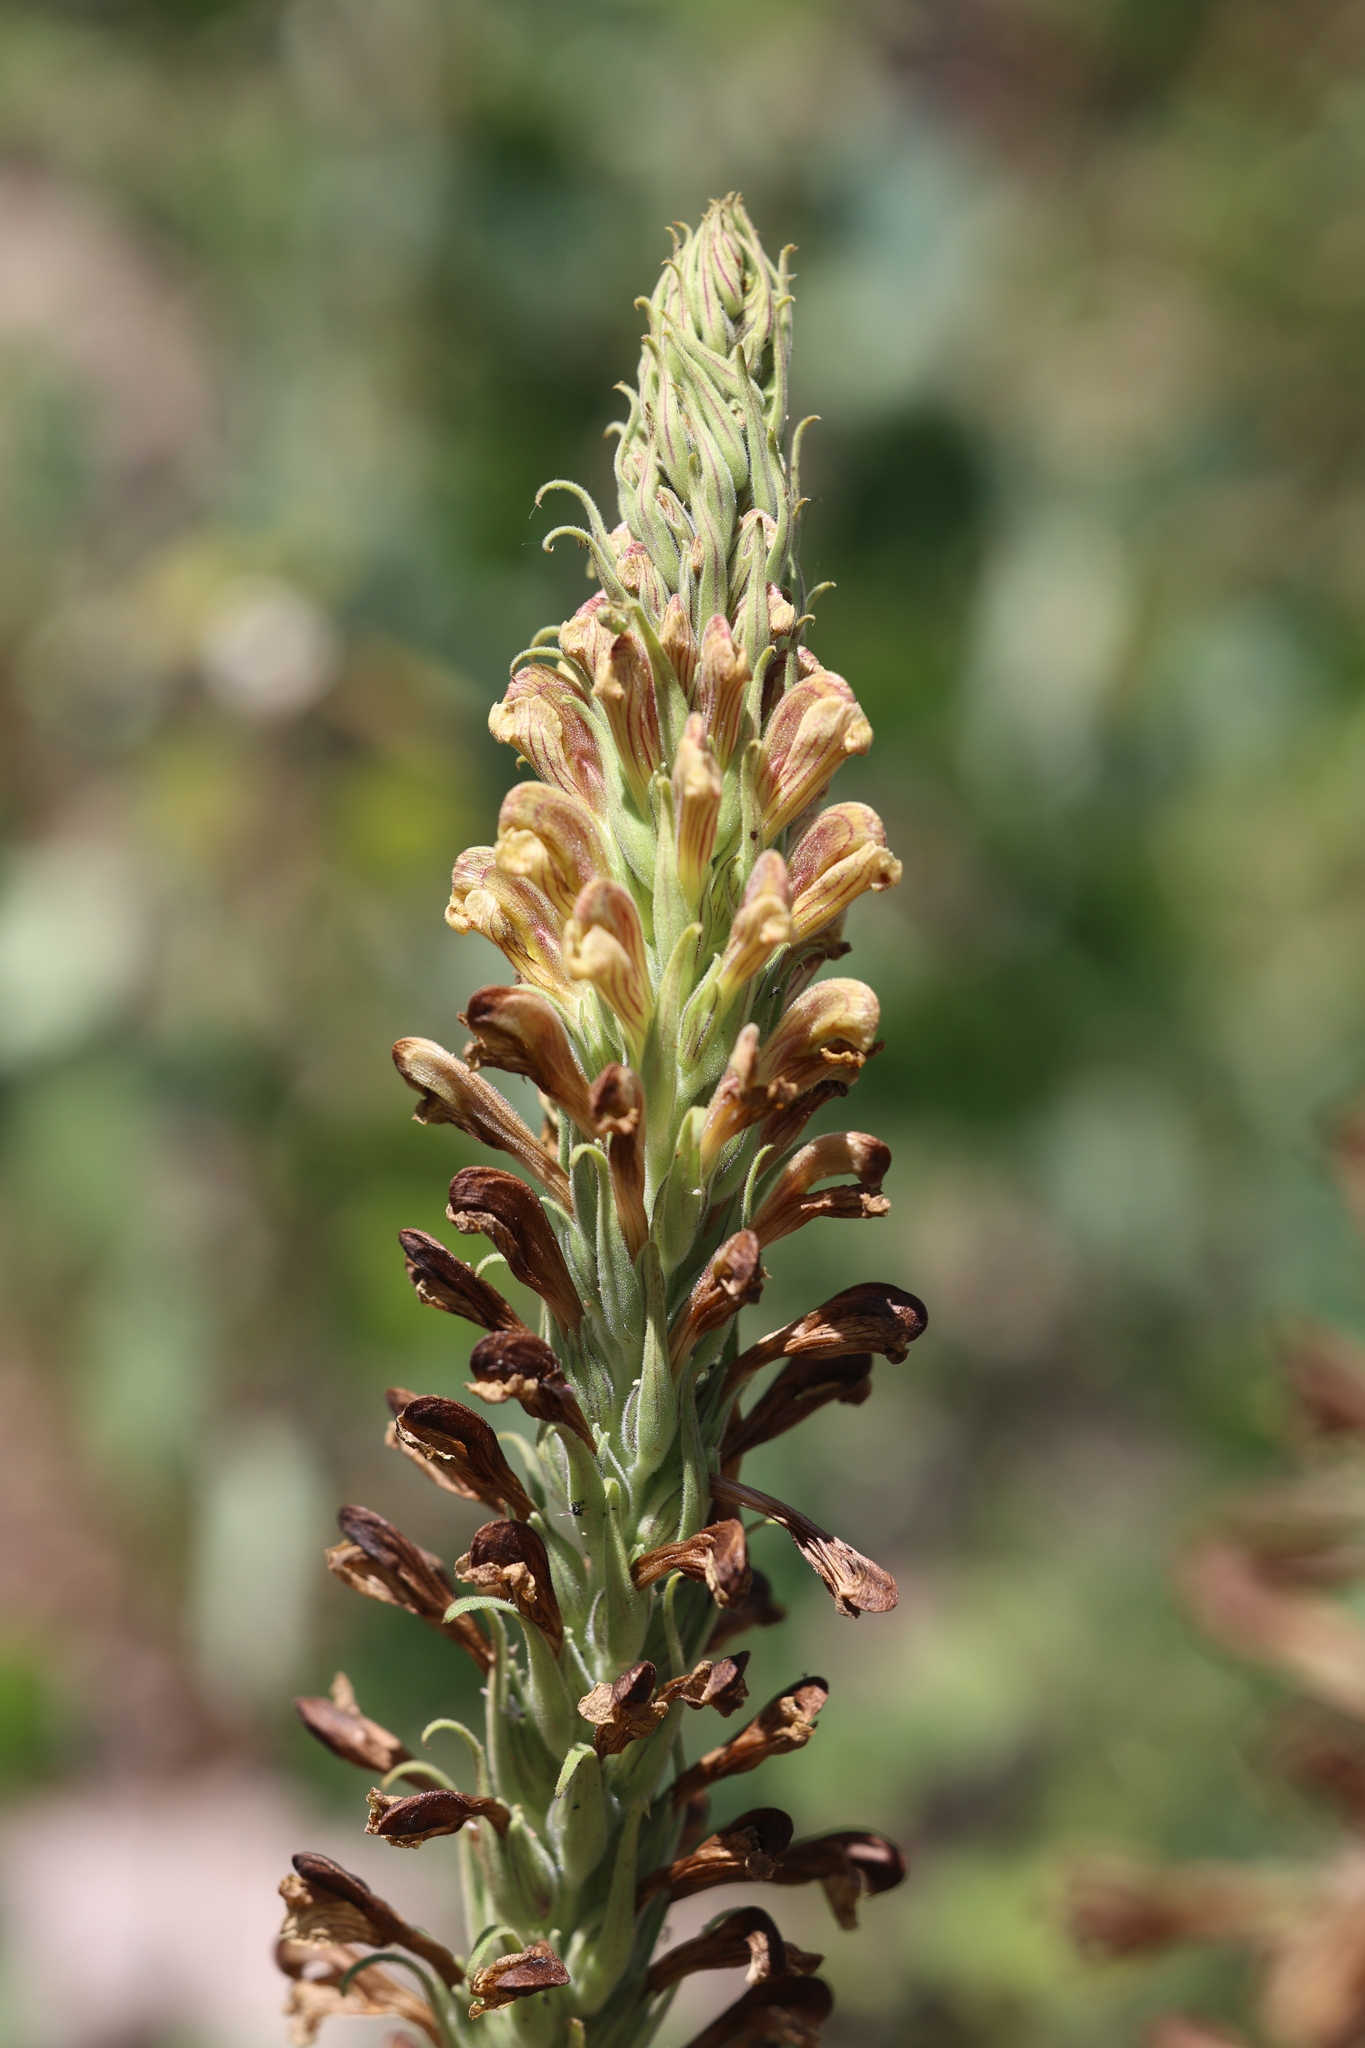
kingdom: Plantae
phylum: Tracheophyta
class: Magnoliopsida
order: Lamiales
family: Orobanchaceae
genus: Pedicularis
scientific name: Pedicularis procera
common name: Gray's lousewort
